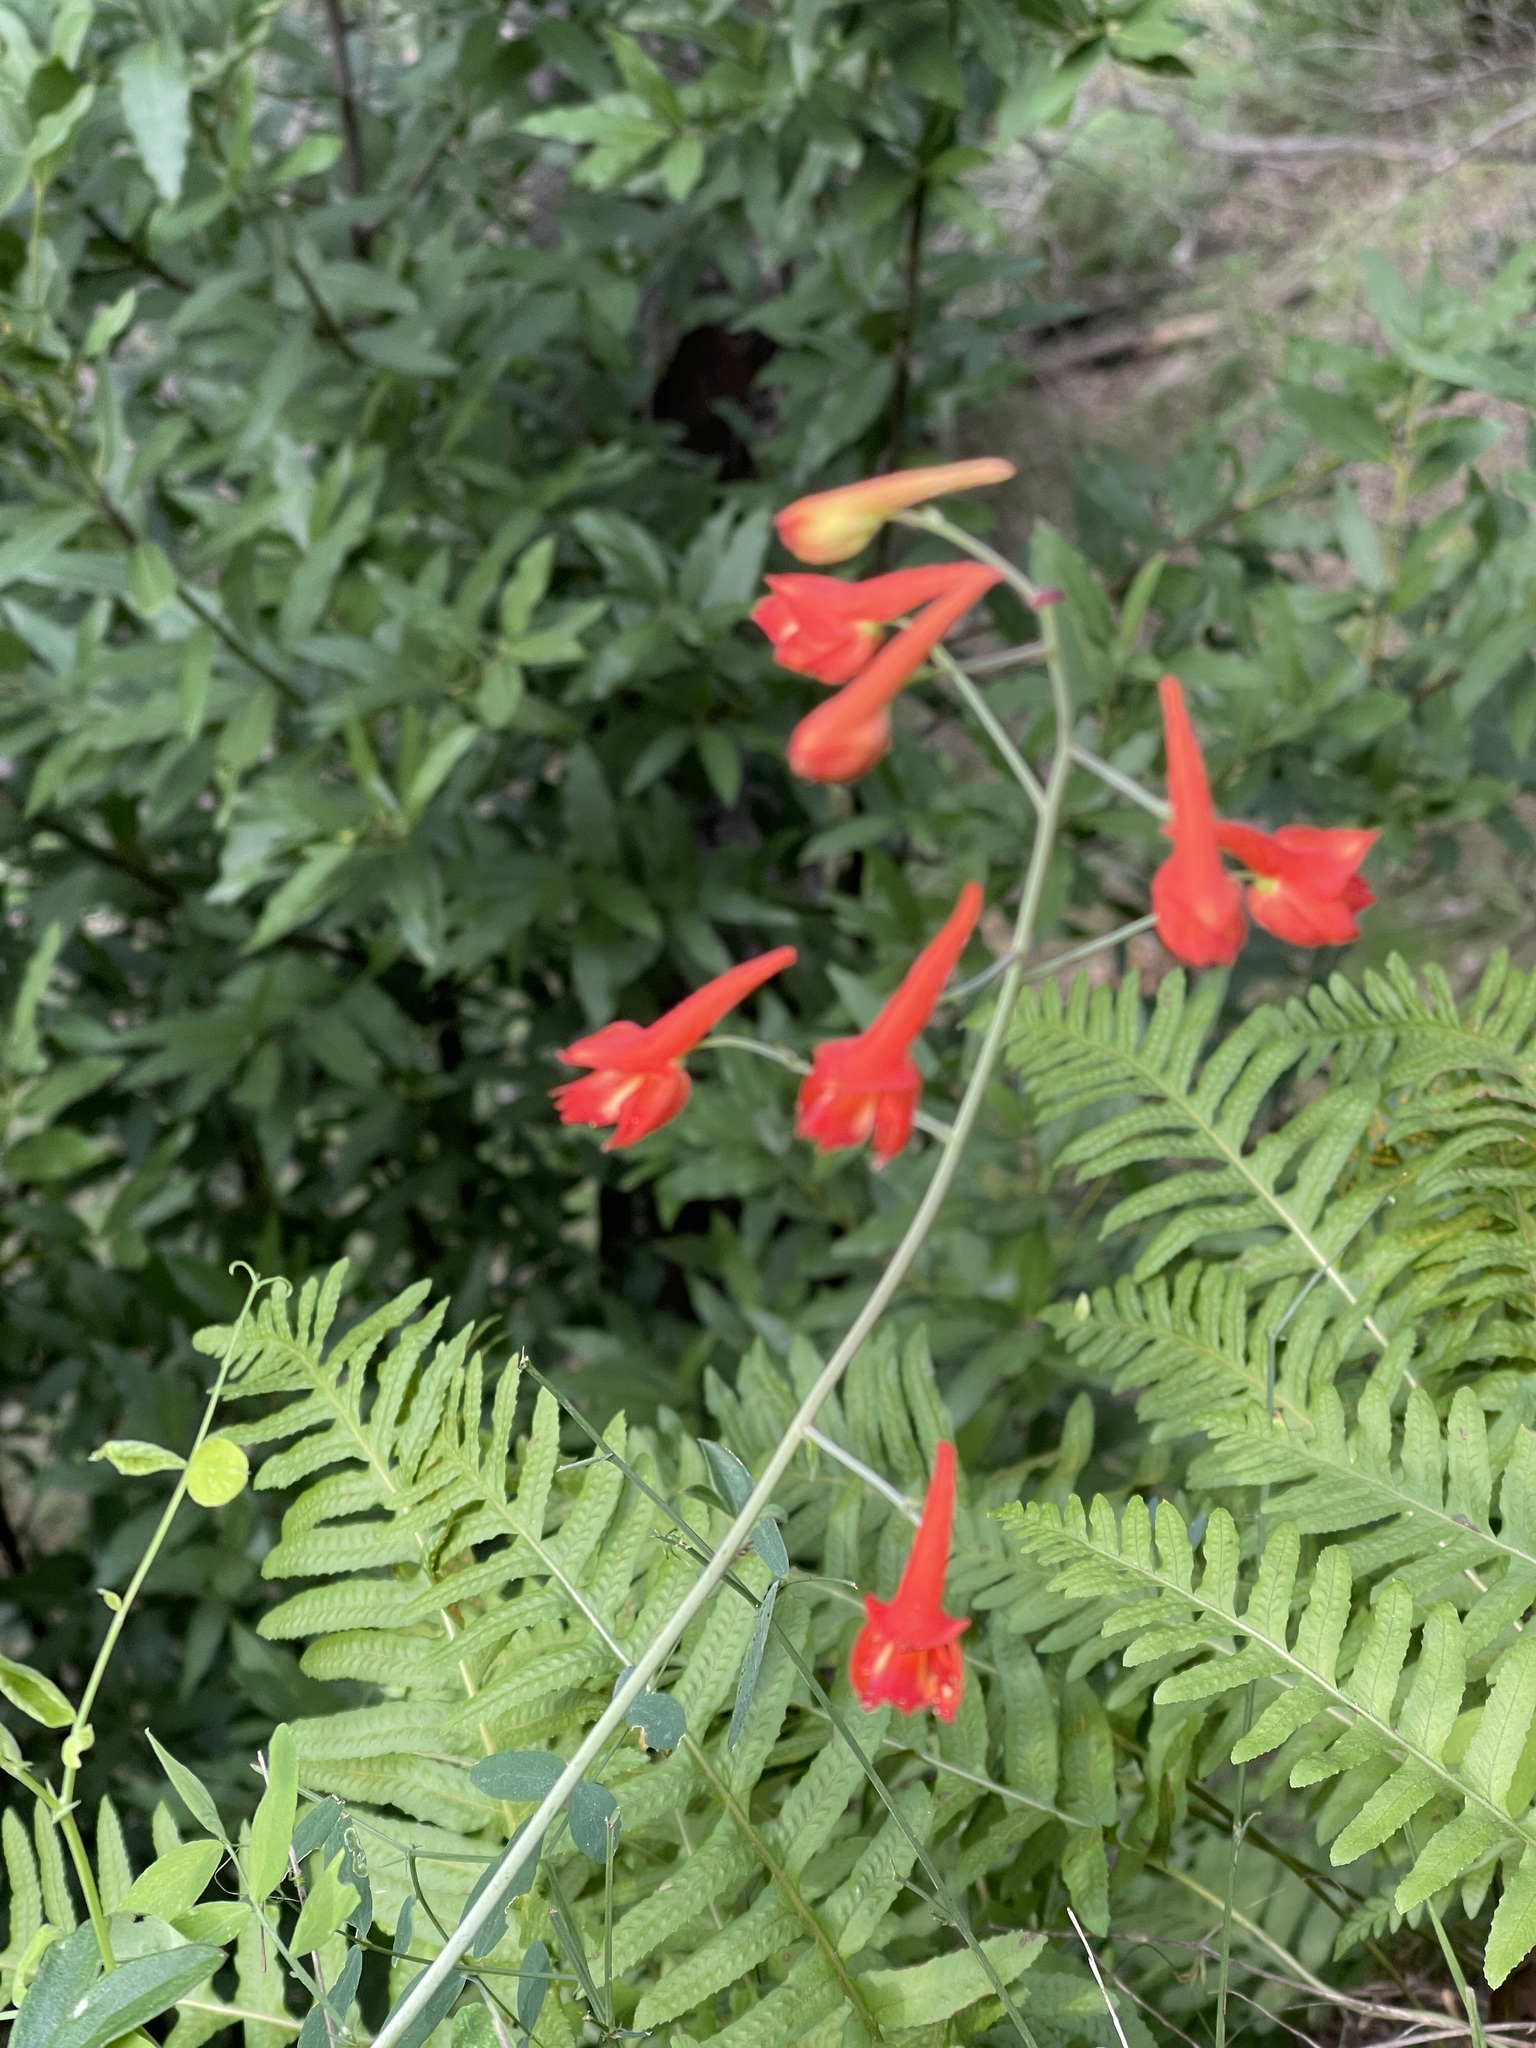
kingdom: Plantae
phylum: Tracheophyta
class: Magnoliopsida
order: Ranunculales
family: Ranunculaceae
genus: Delphinium
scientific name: Delphinium nudicaule
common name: Red larkspur
